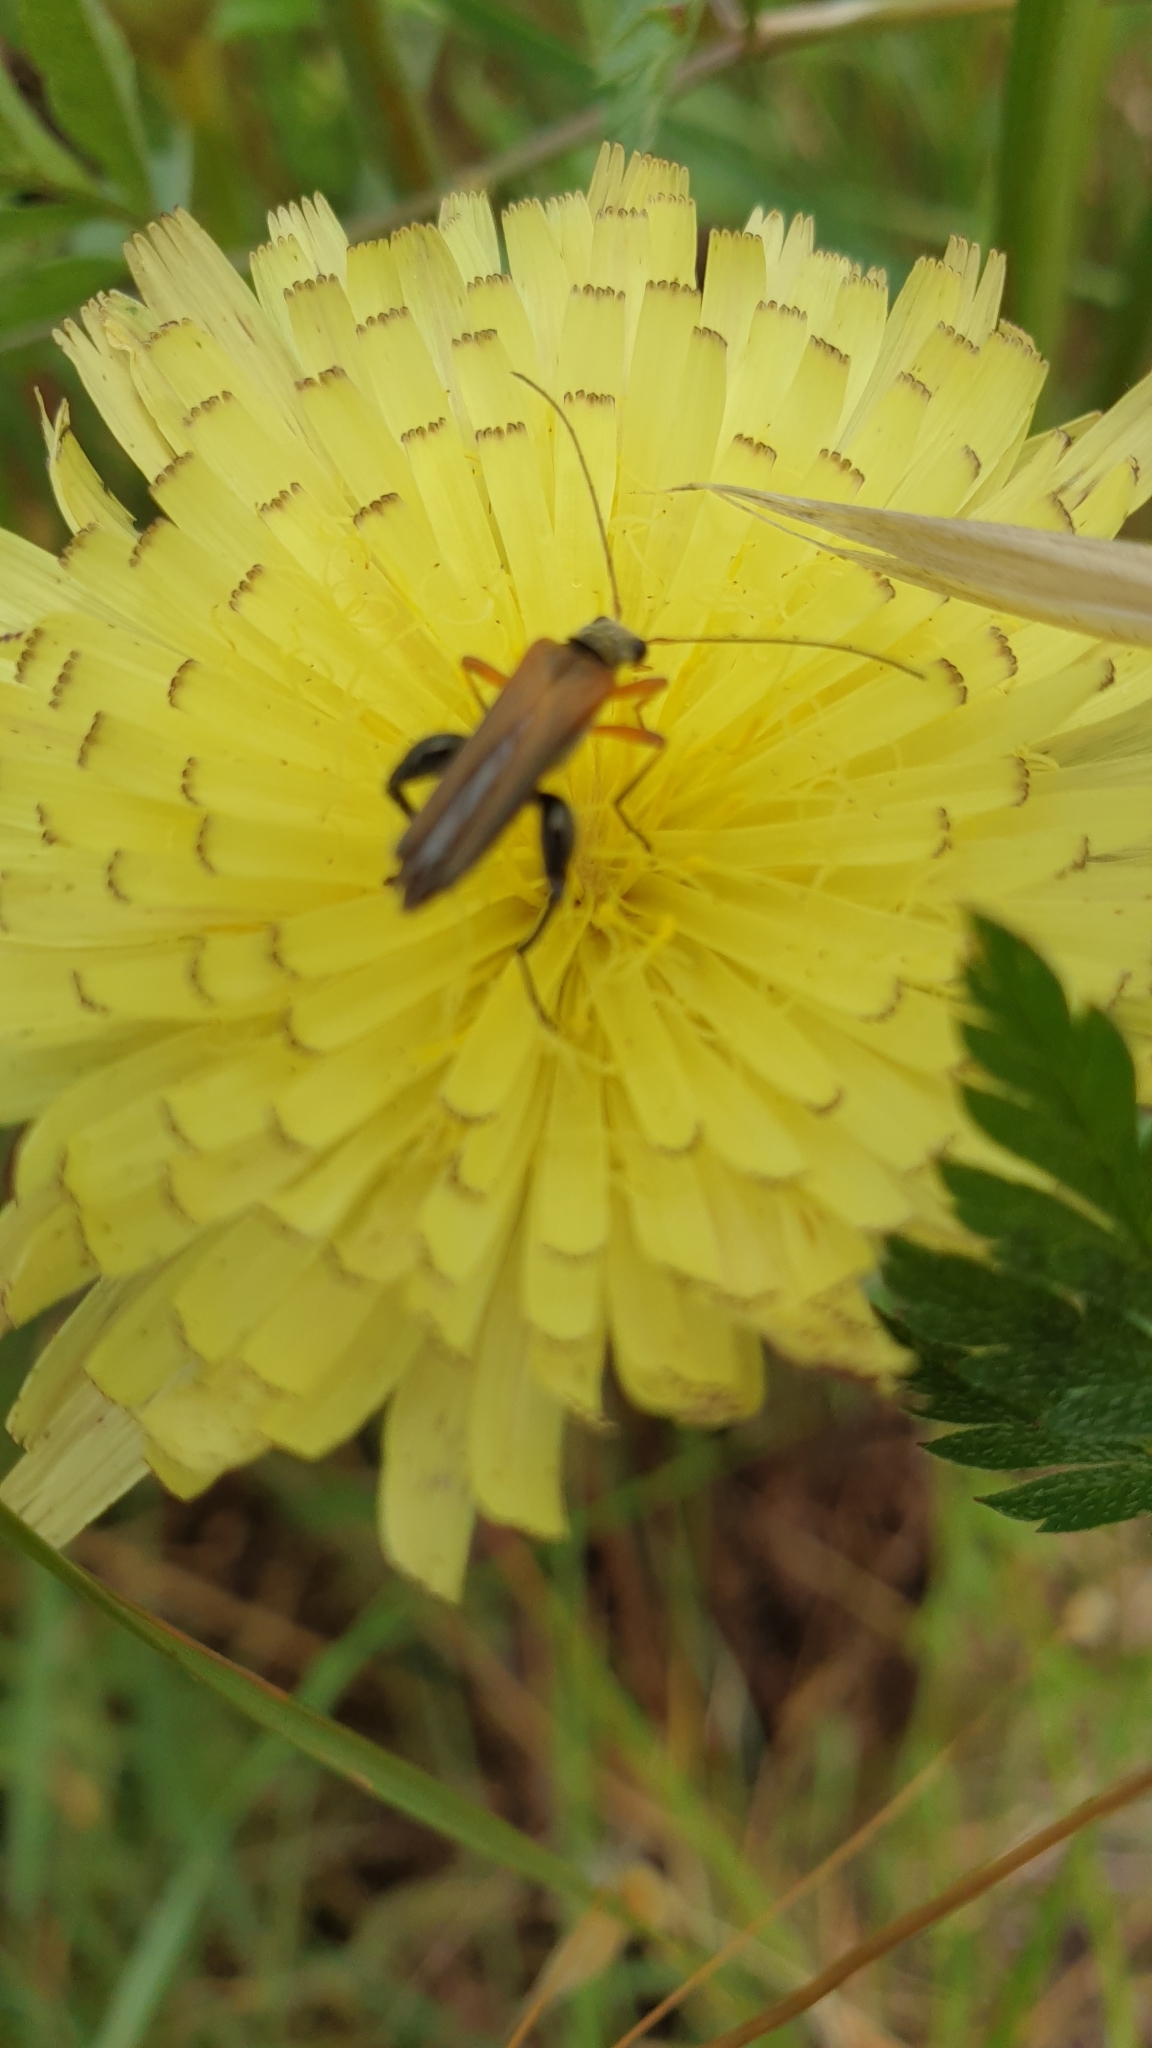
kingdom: Animalia
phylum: Arthropoda
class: Insecta
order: Coleoptera
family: Oedemeridae
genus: Oedemera
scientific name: Oedemera podagrariae
